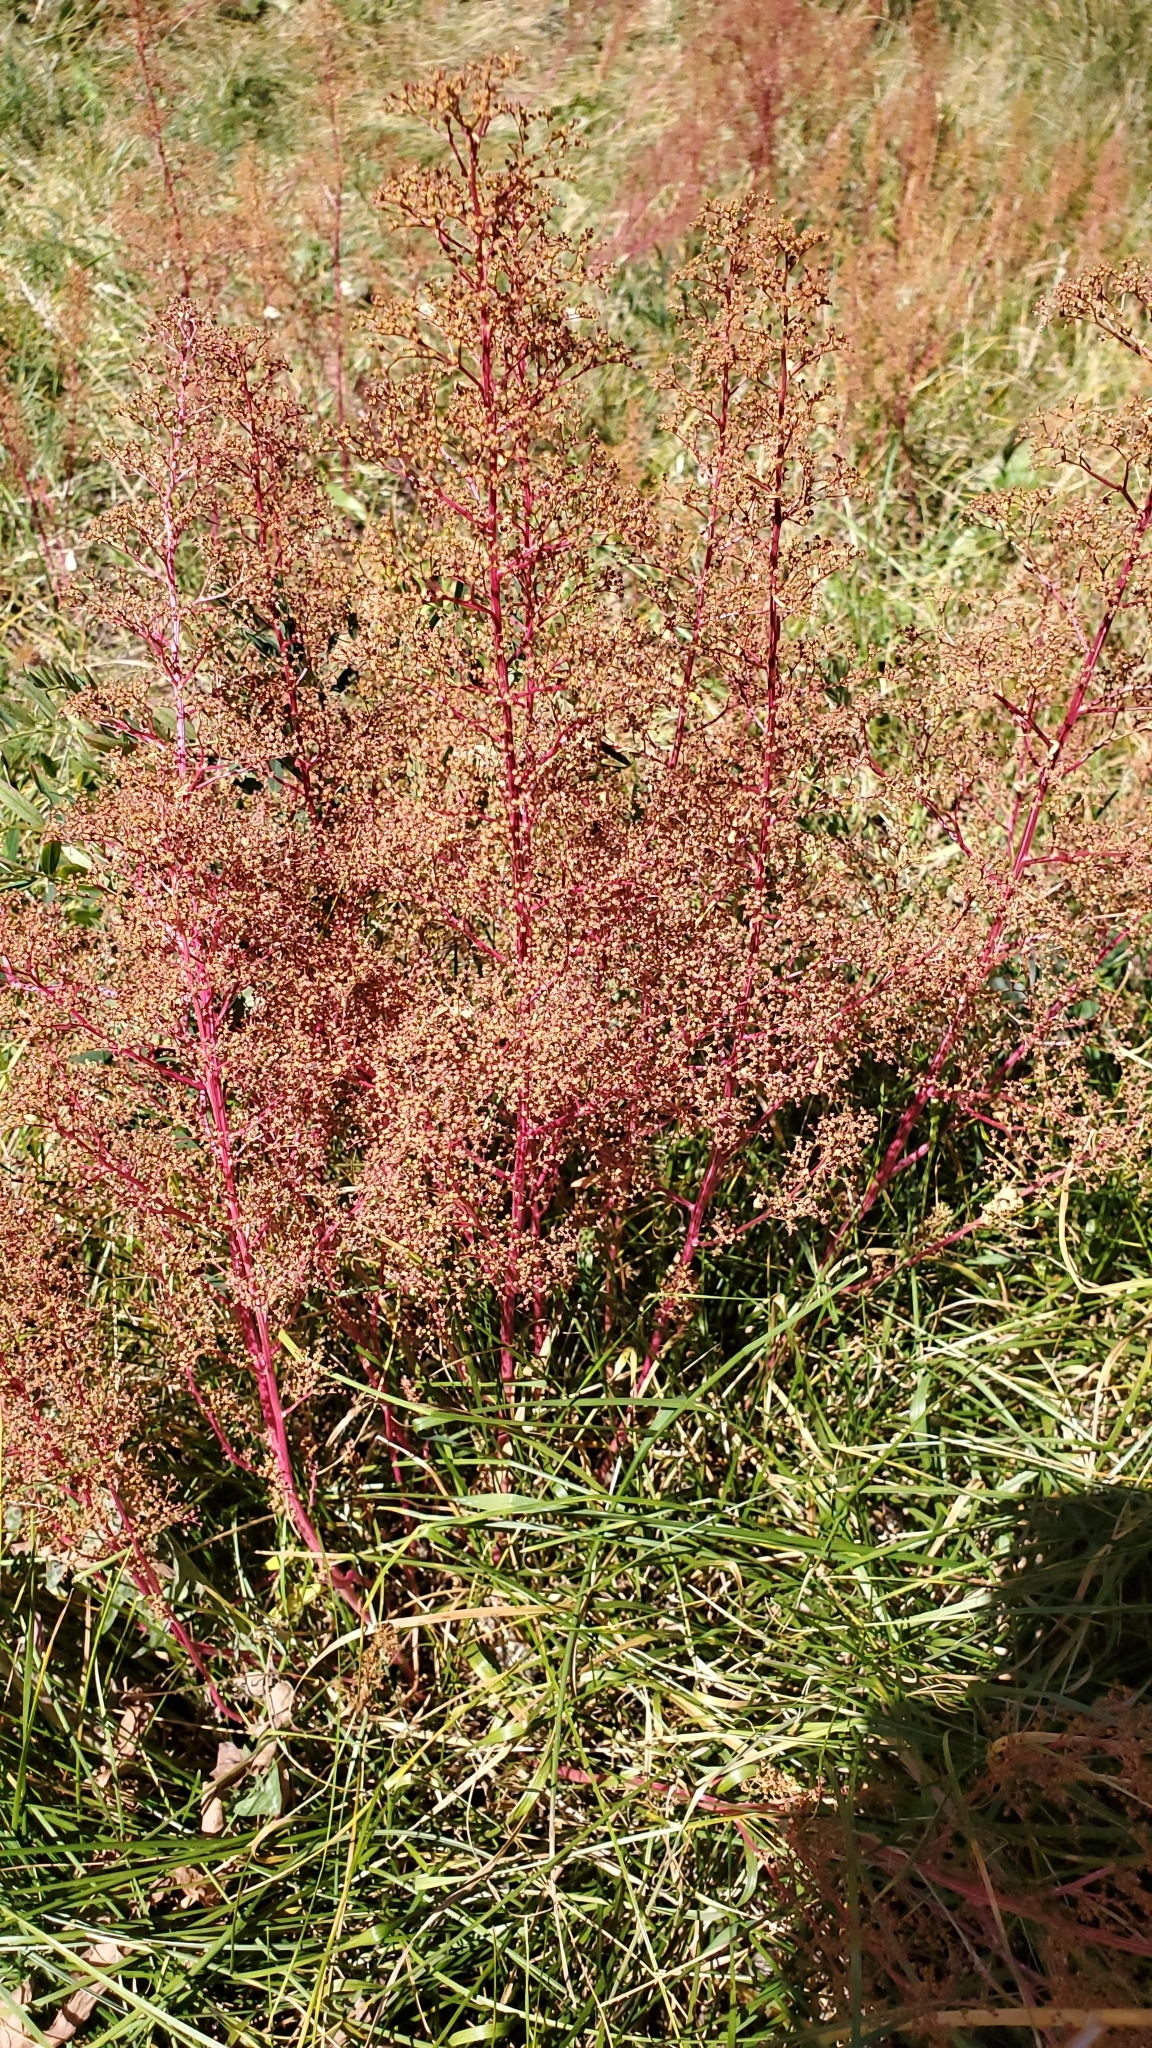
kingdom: Plantae
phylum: Tracheophyta
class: Magnoliopsida
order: Caryophyllales
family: Amaranthaceae
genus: Dysphania
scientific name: Dysphania incisa
